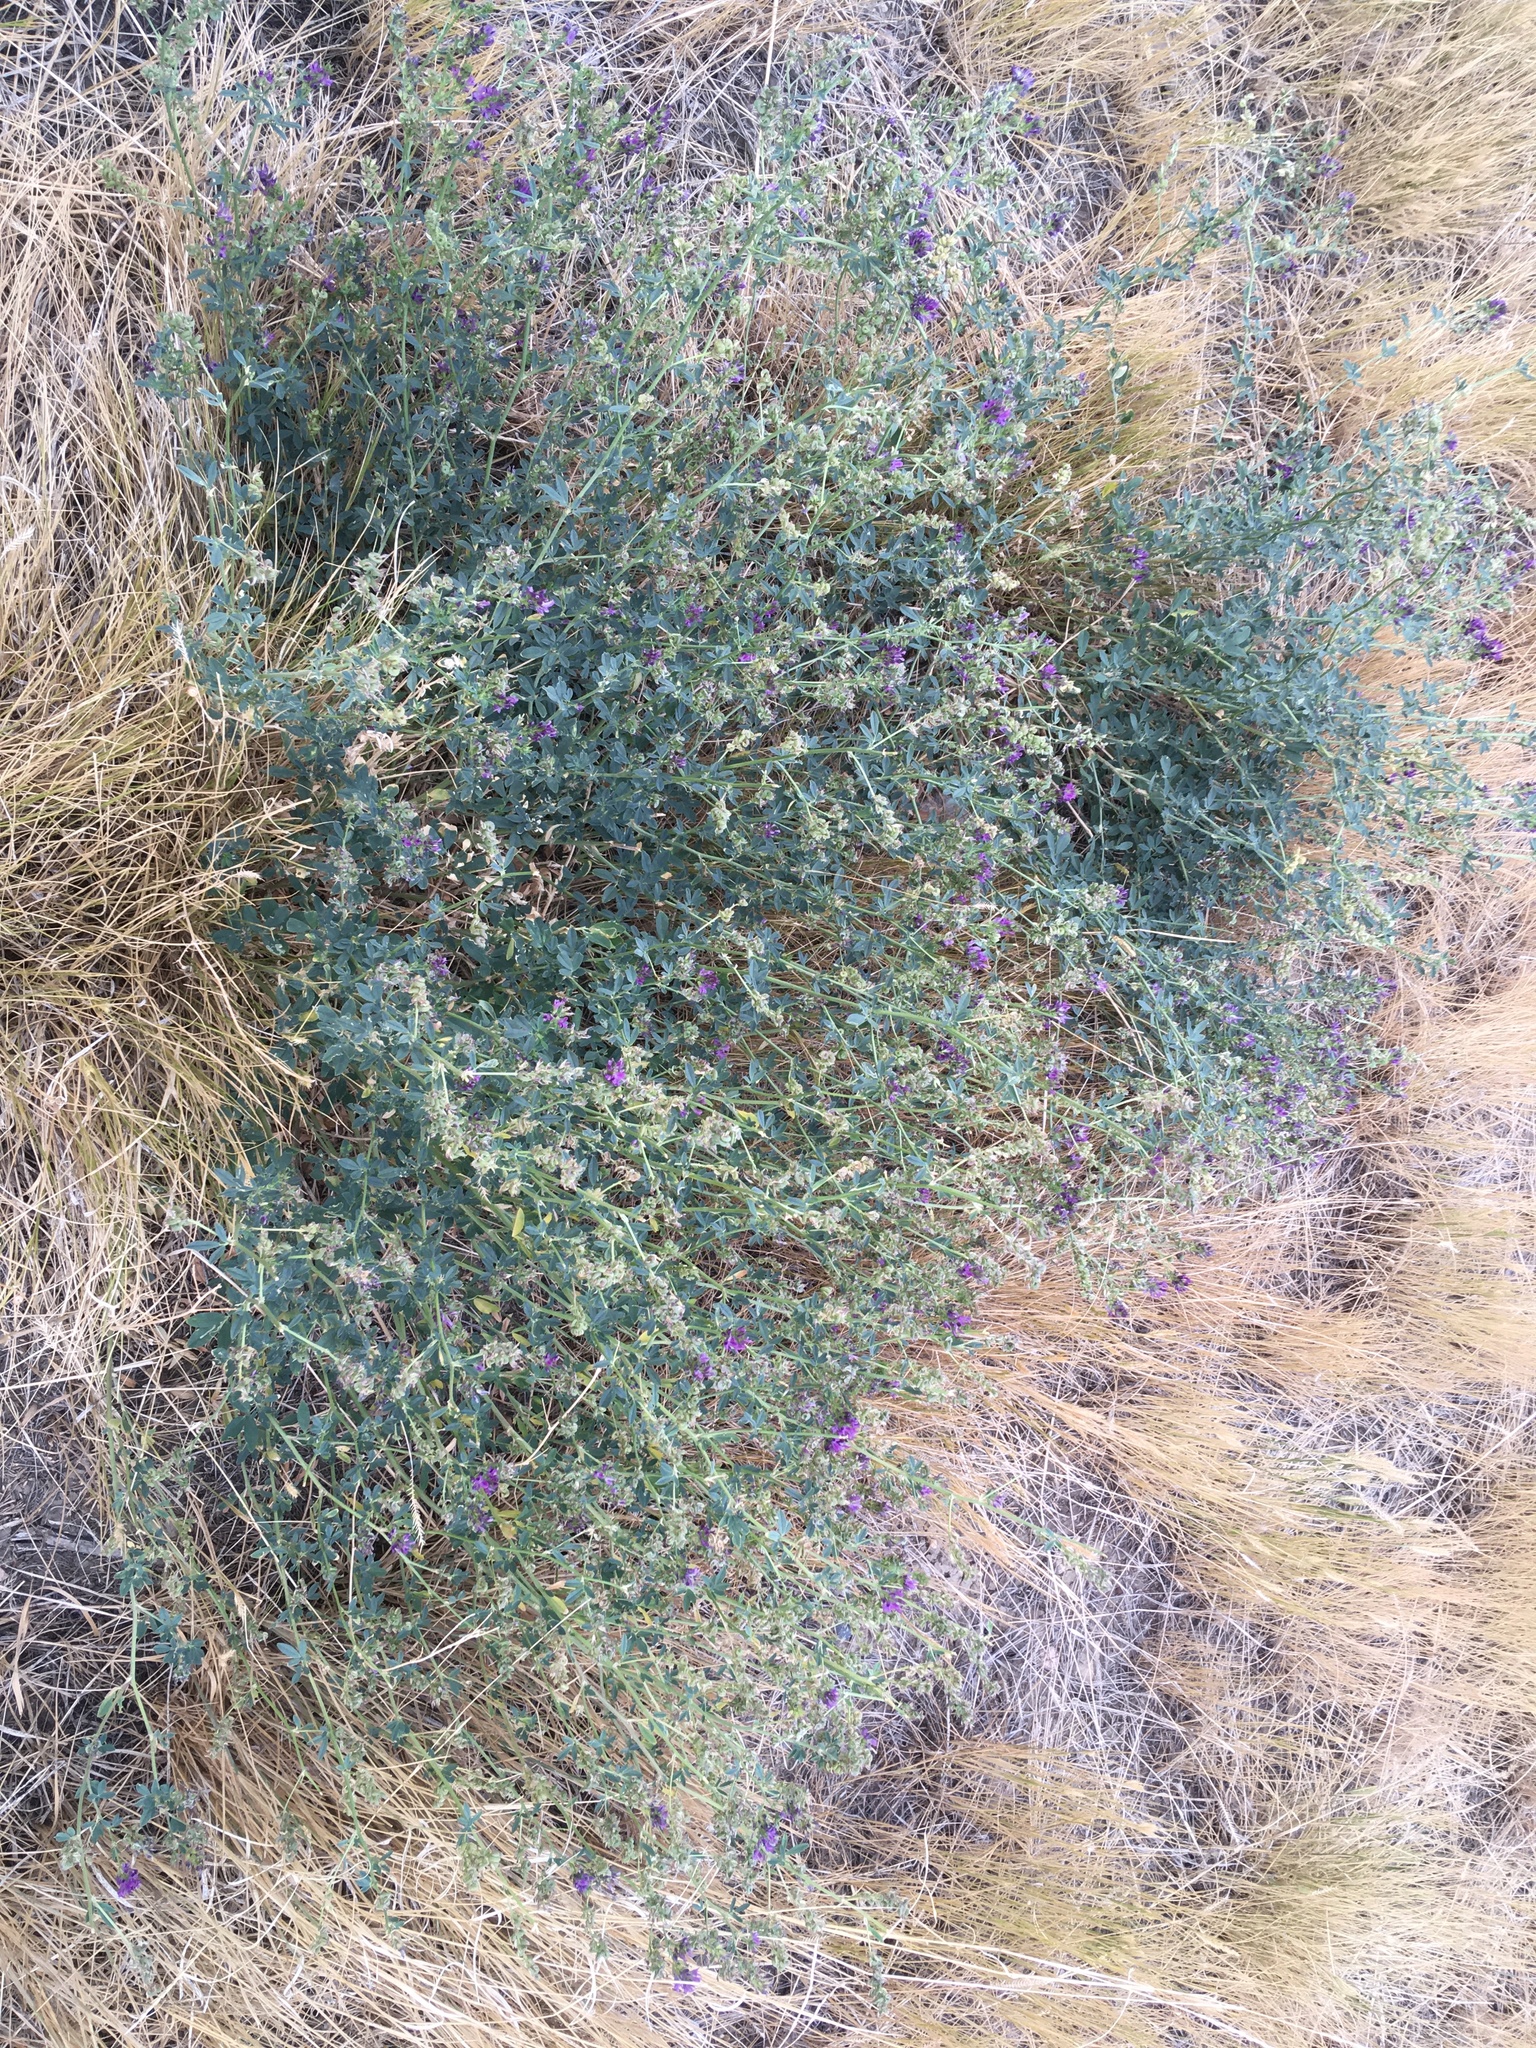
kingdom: Plantae
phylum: Tracheophyta
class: Magnoliopsida
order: Fabales
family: Fabaceae
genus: Medicago
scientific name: Medicago sativa
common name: Alfalfa
